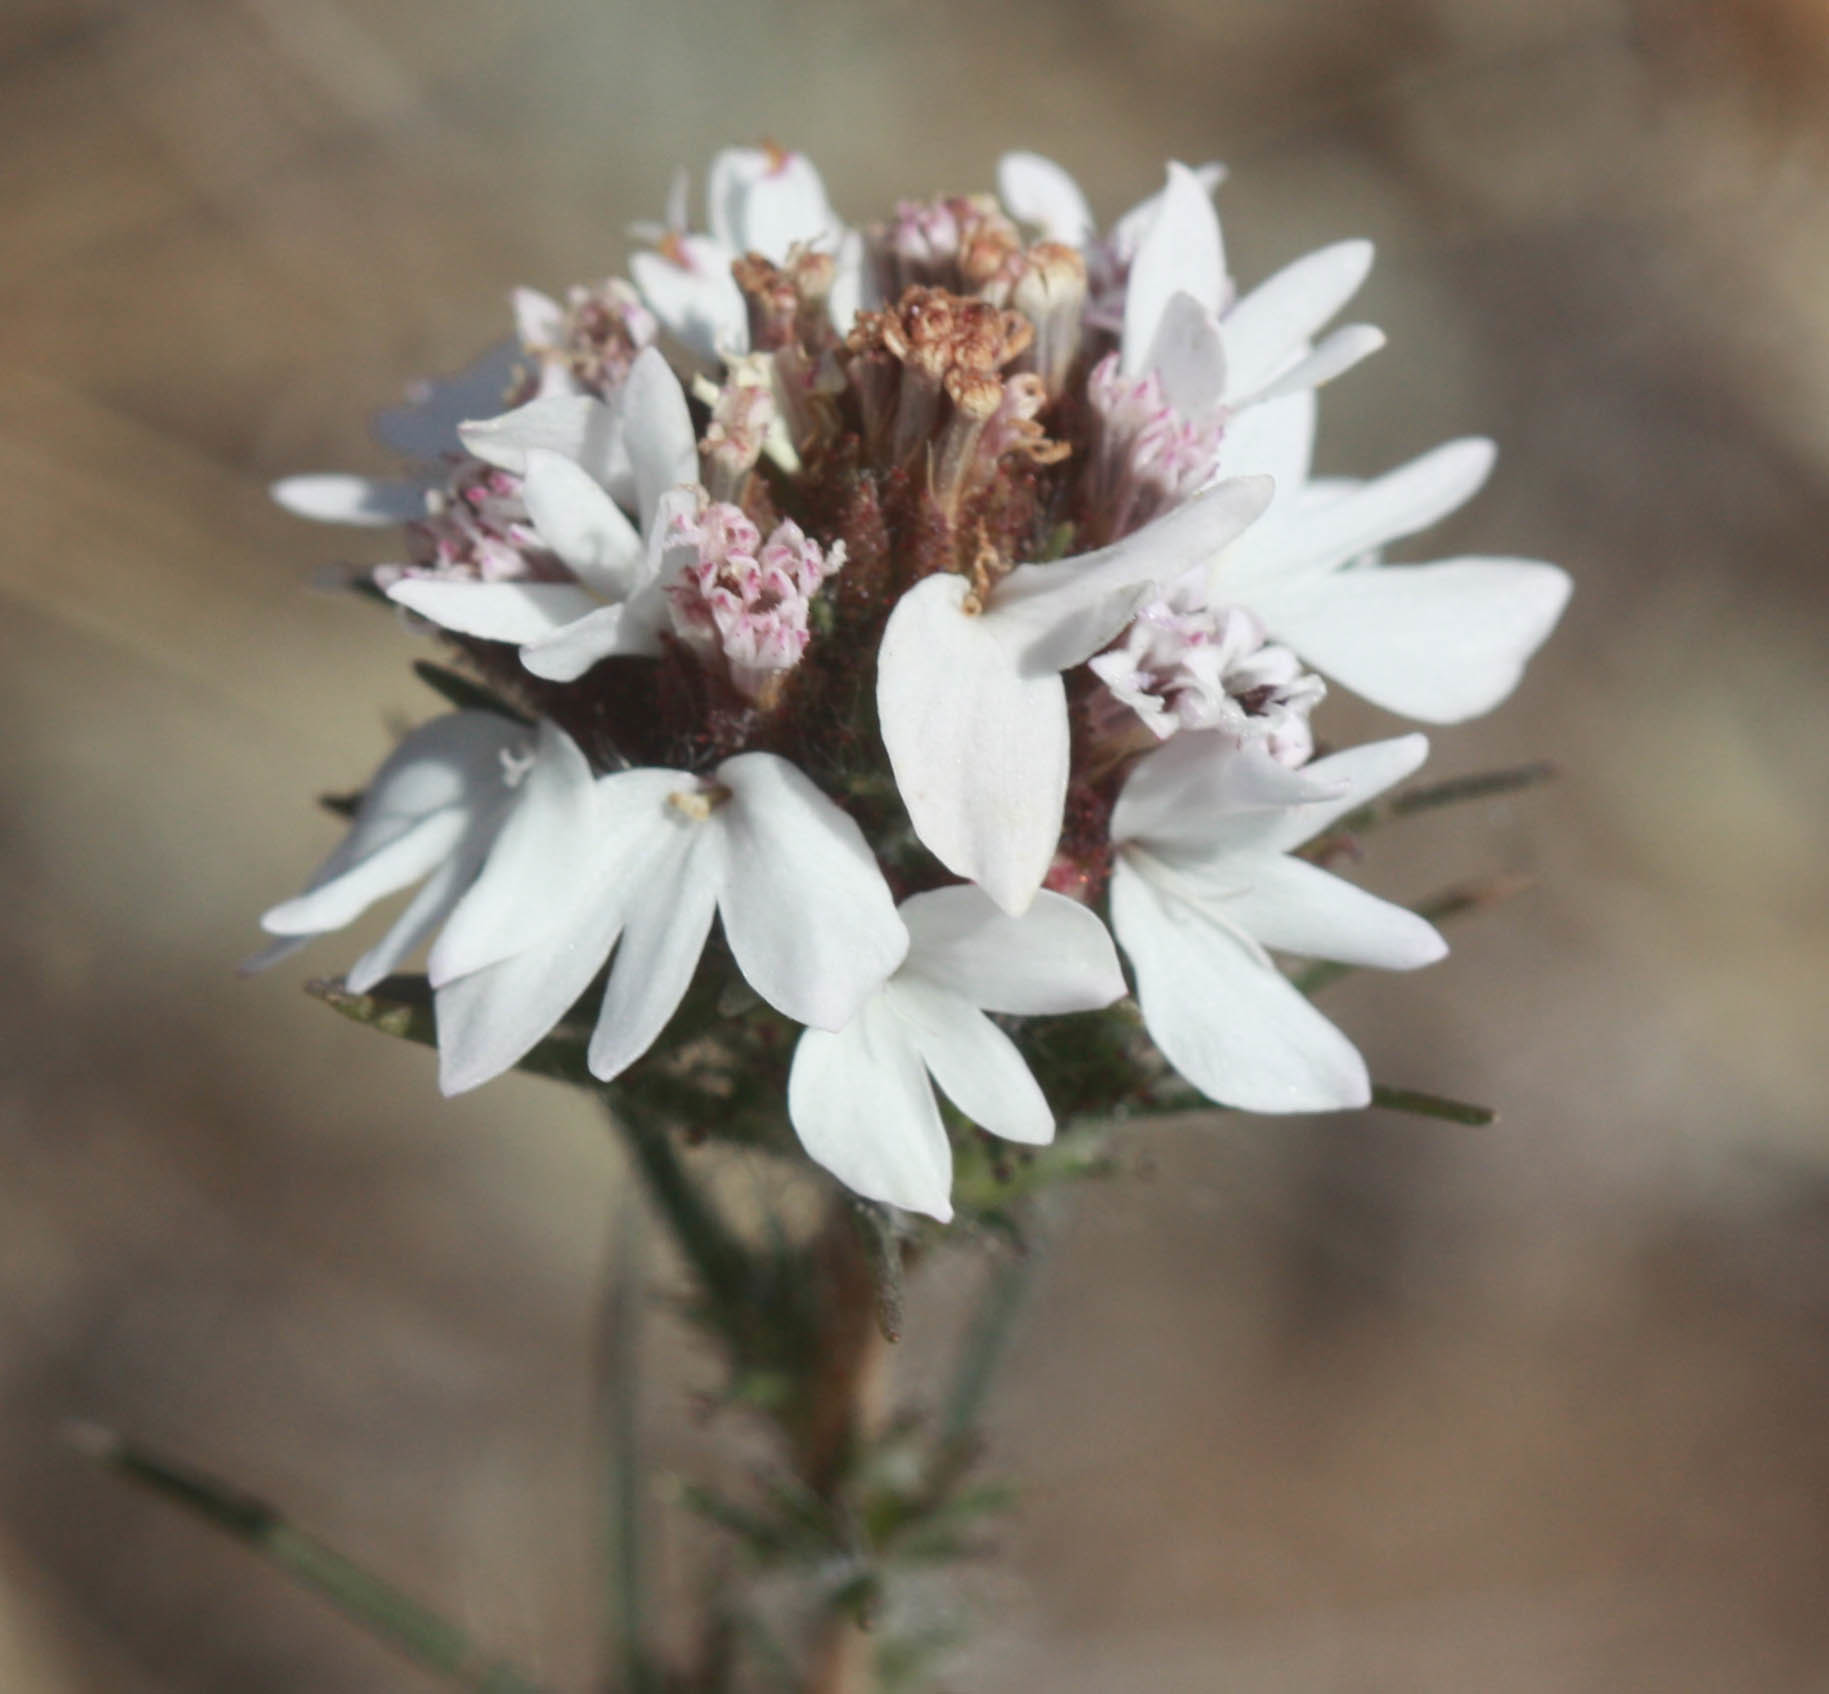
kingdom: Plantae
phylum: Tracheophyta
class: Magnoliopsida
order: Asterales
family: Asteraceae
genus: Calycadenia
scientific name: Calycadenia multiglandulosa
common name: Sticky calycadenia
